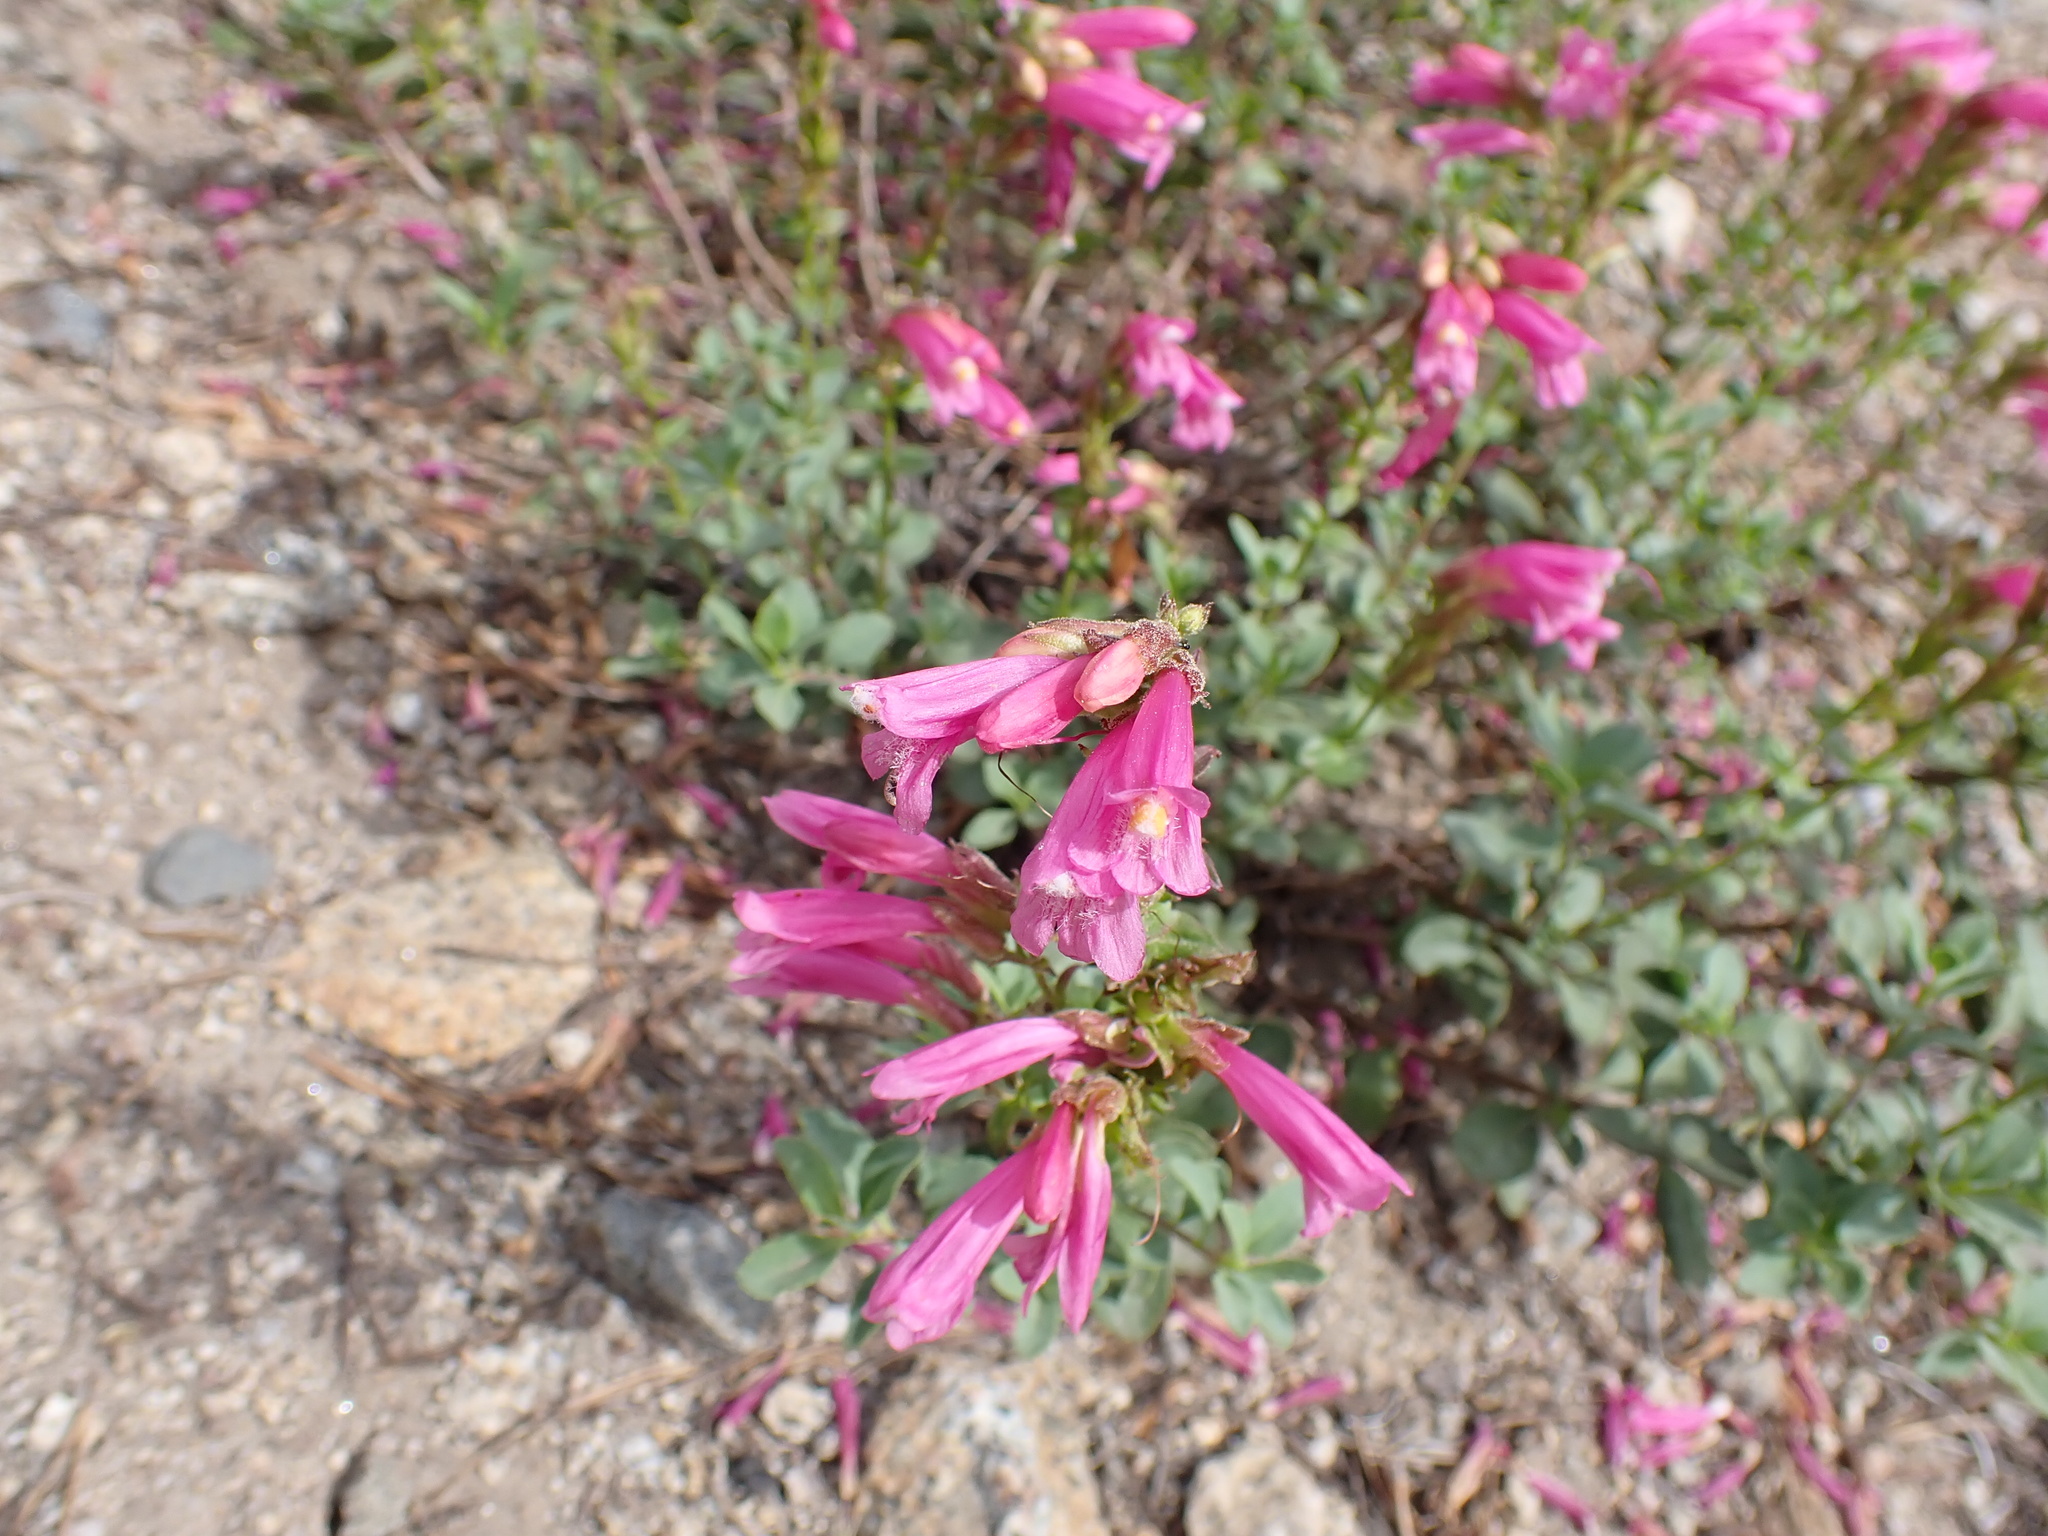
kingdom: Plantae
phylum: Tracheophyta
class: Magnoliopsida
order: Lamiales
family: Plantaginaceae
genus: Penstemon
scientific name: Penstemon newberryi
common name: Mountain-pride
